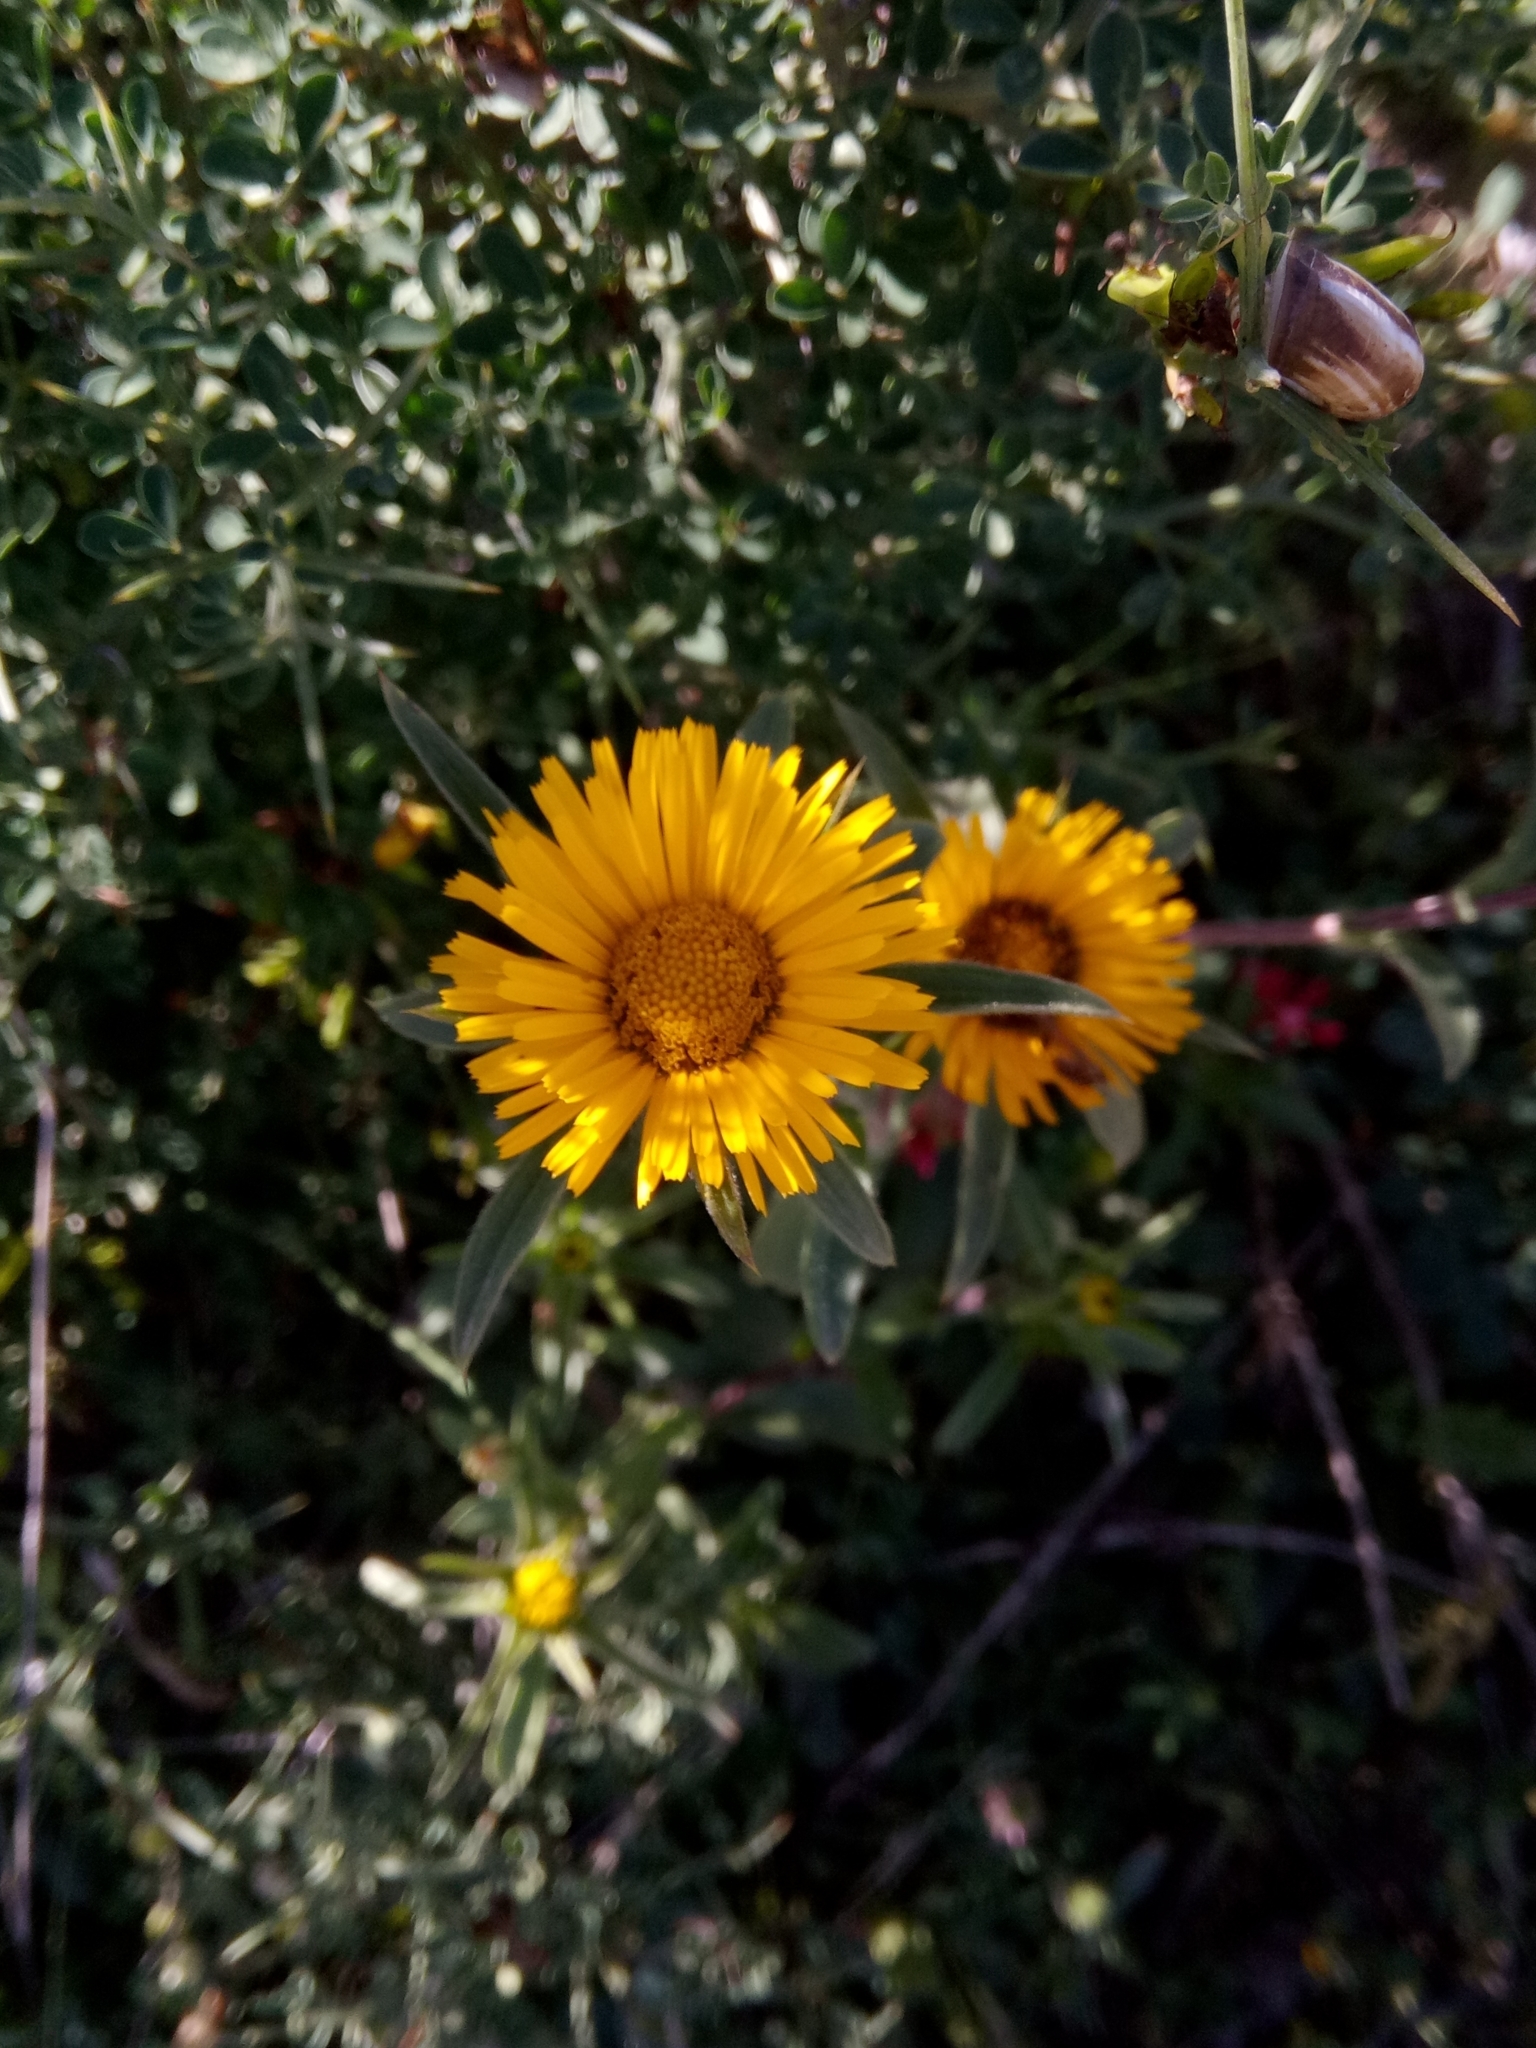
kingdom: Plantae
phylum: Tracheophyta
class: Magnoliopsida
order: Asterales
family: Asteraceae
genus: Pallenis
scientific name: Pallenis spinosa
